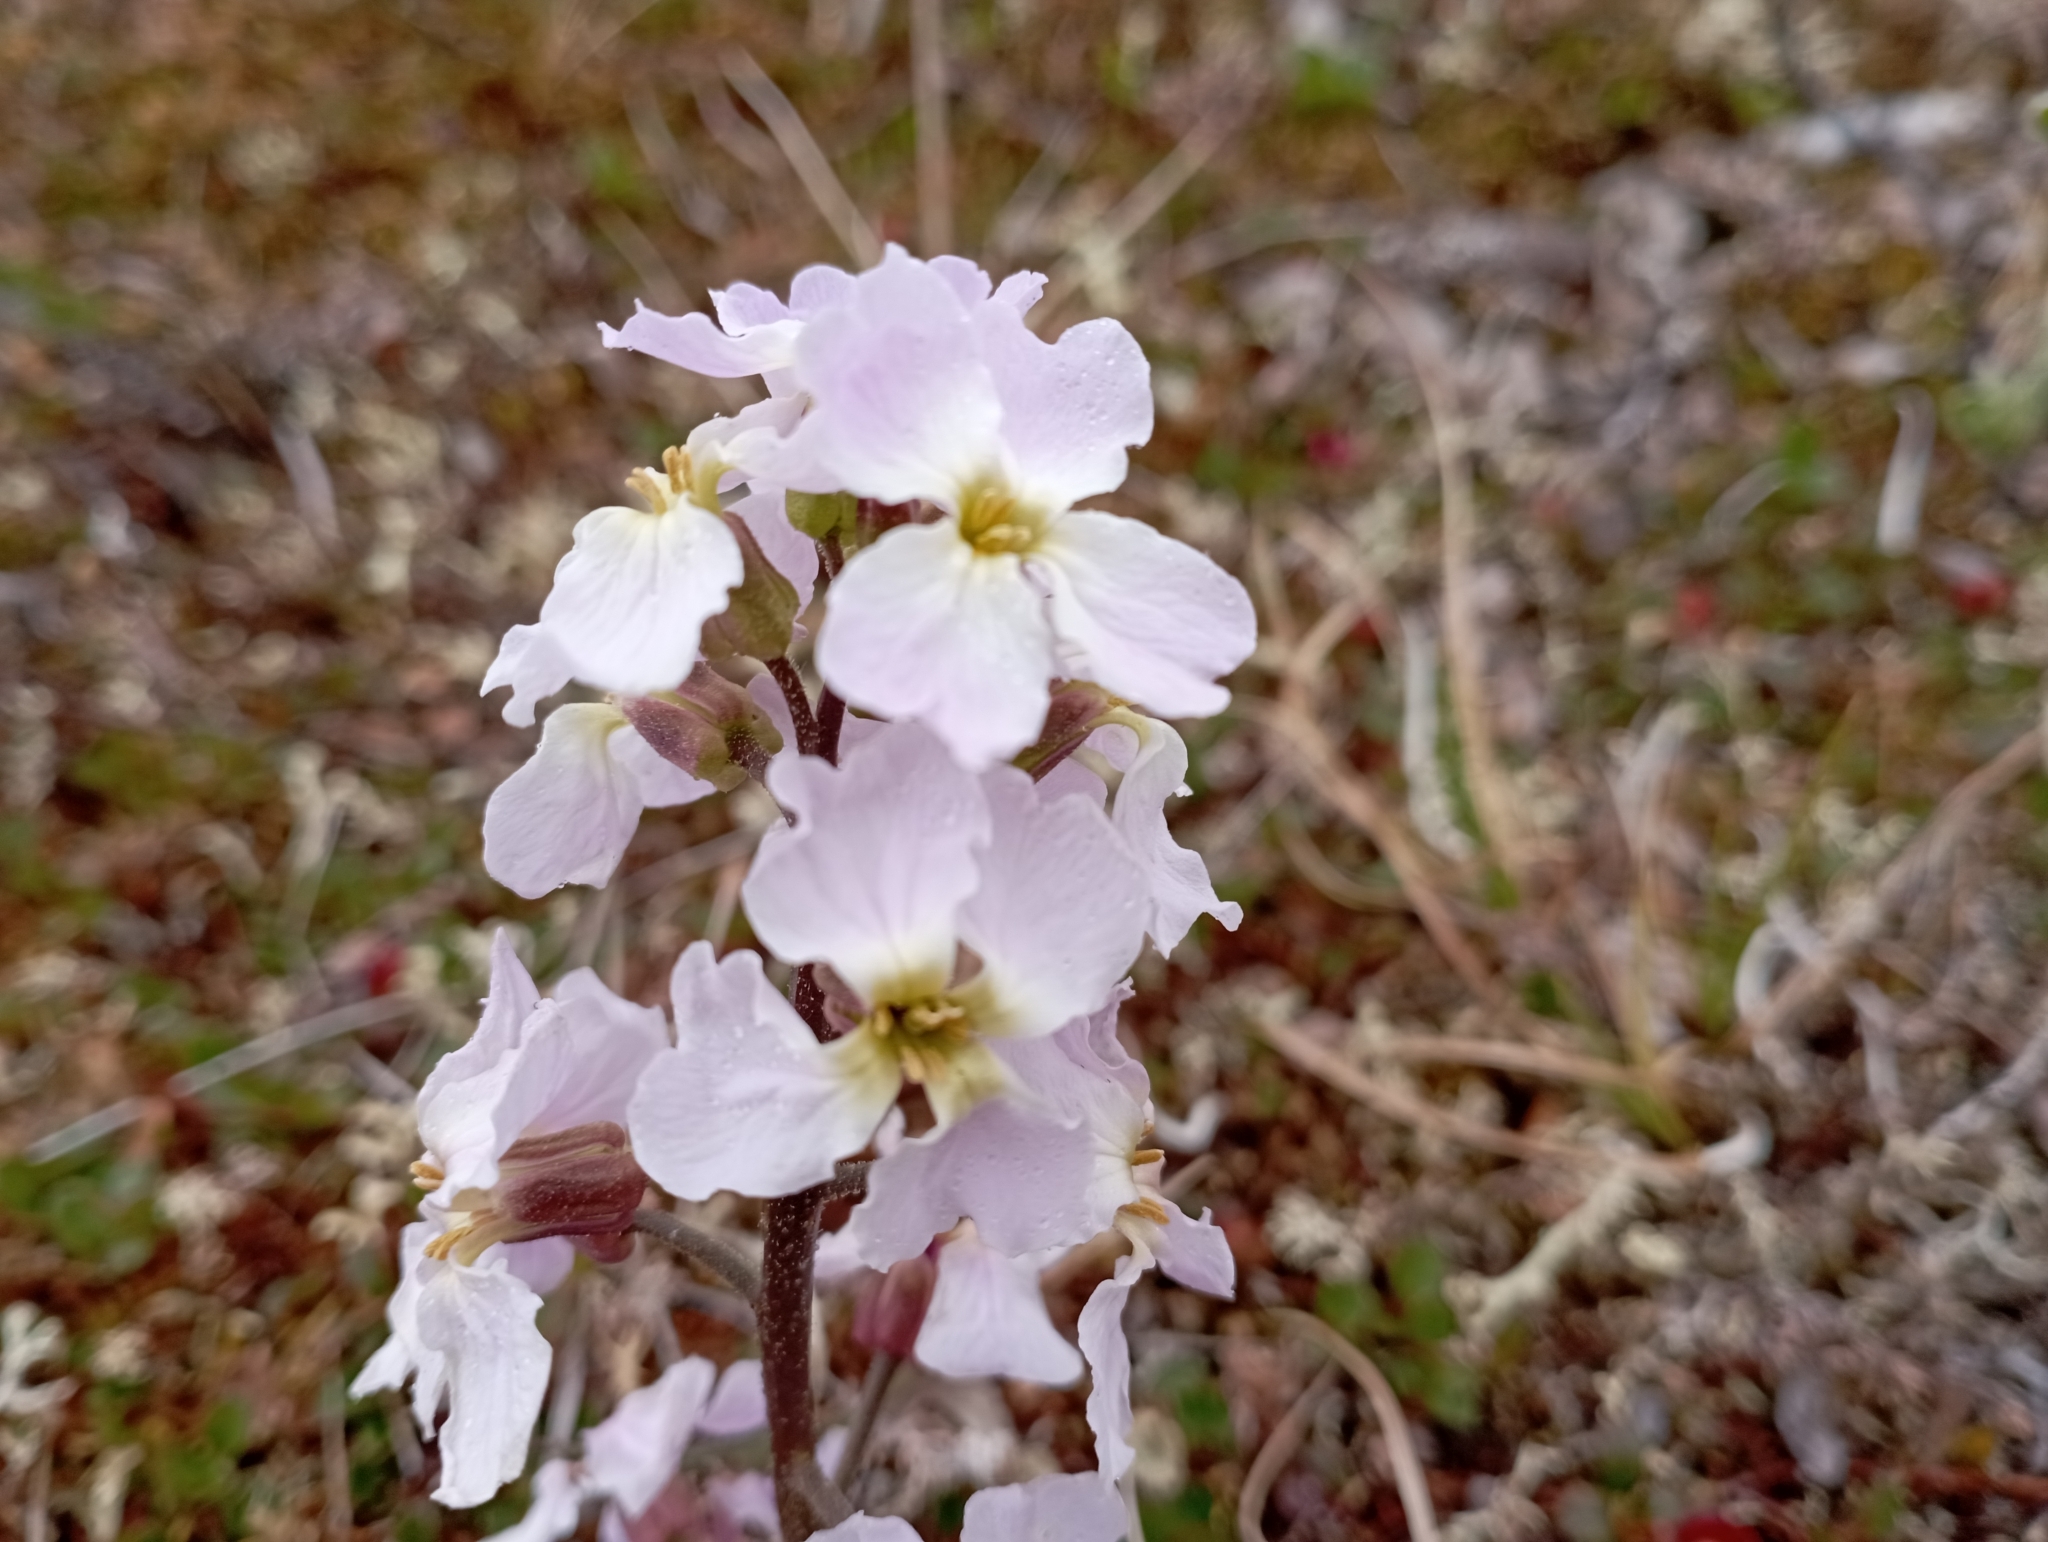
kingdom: Plantae
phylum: Tracheophyta
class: Magnoliopsida
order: Brassicales
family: Brassicaceae
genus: Parrya
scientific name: Parrya nudicaulis
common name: Naked-stemmed false wallflower
